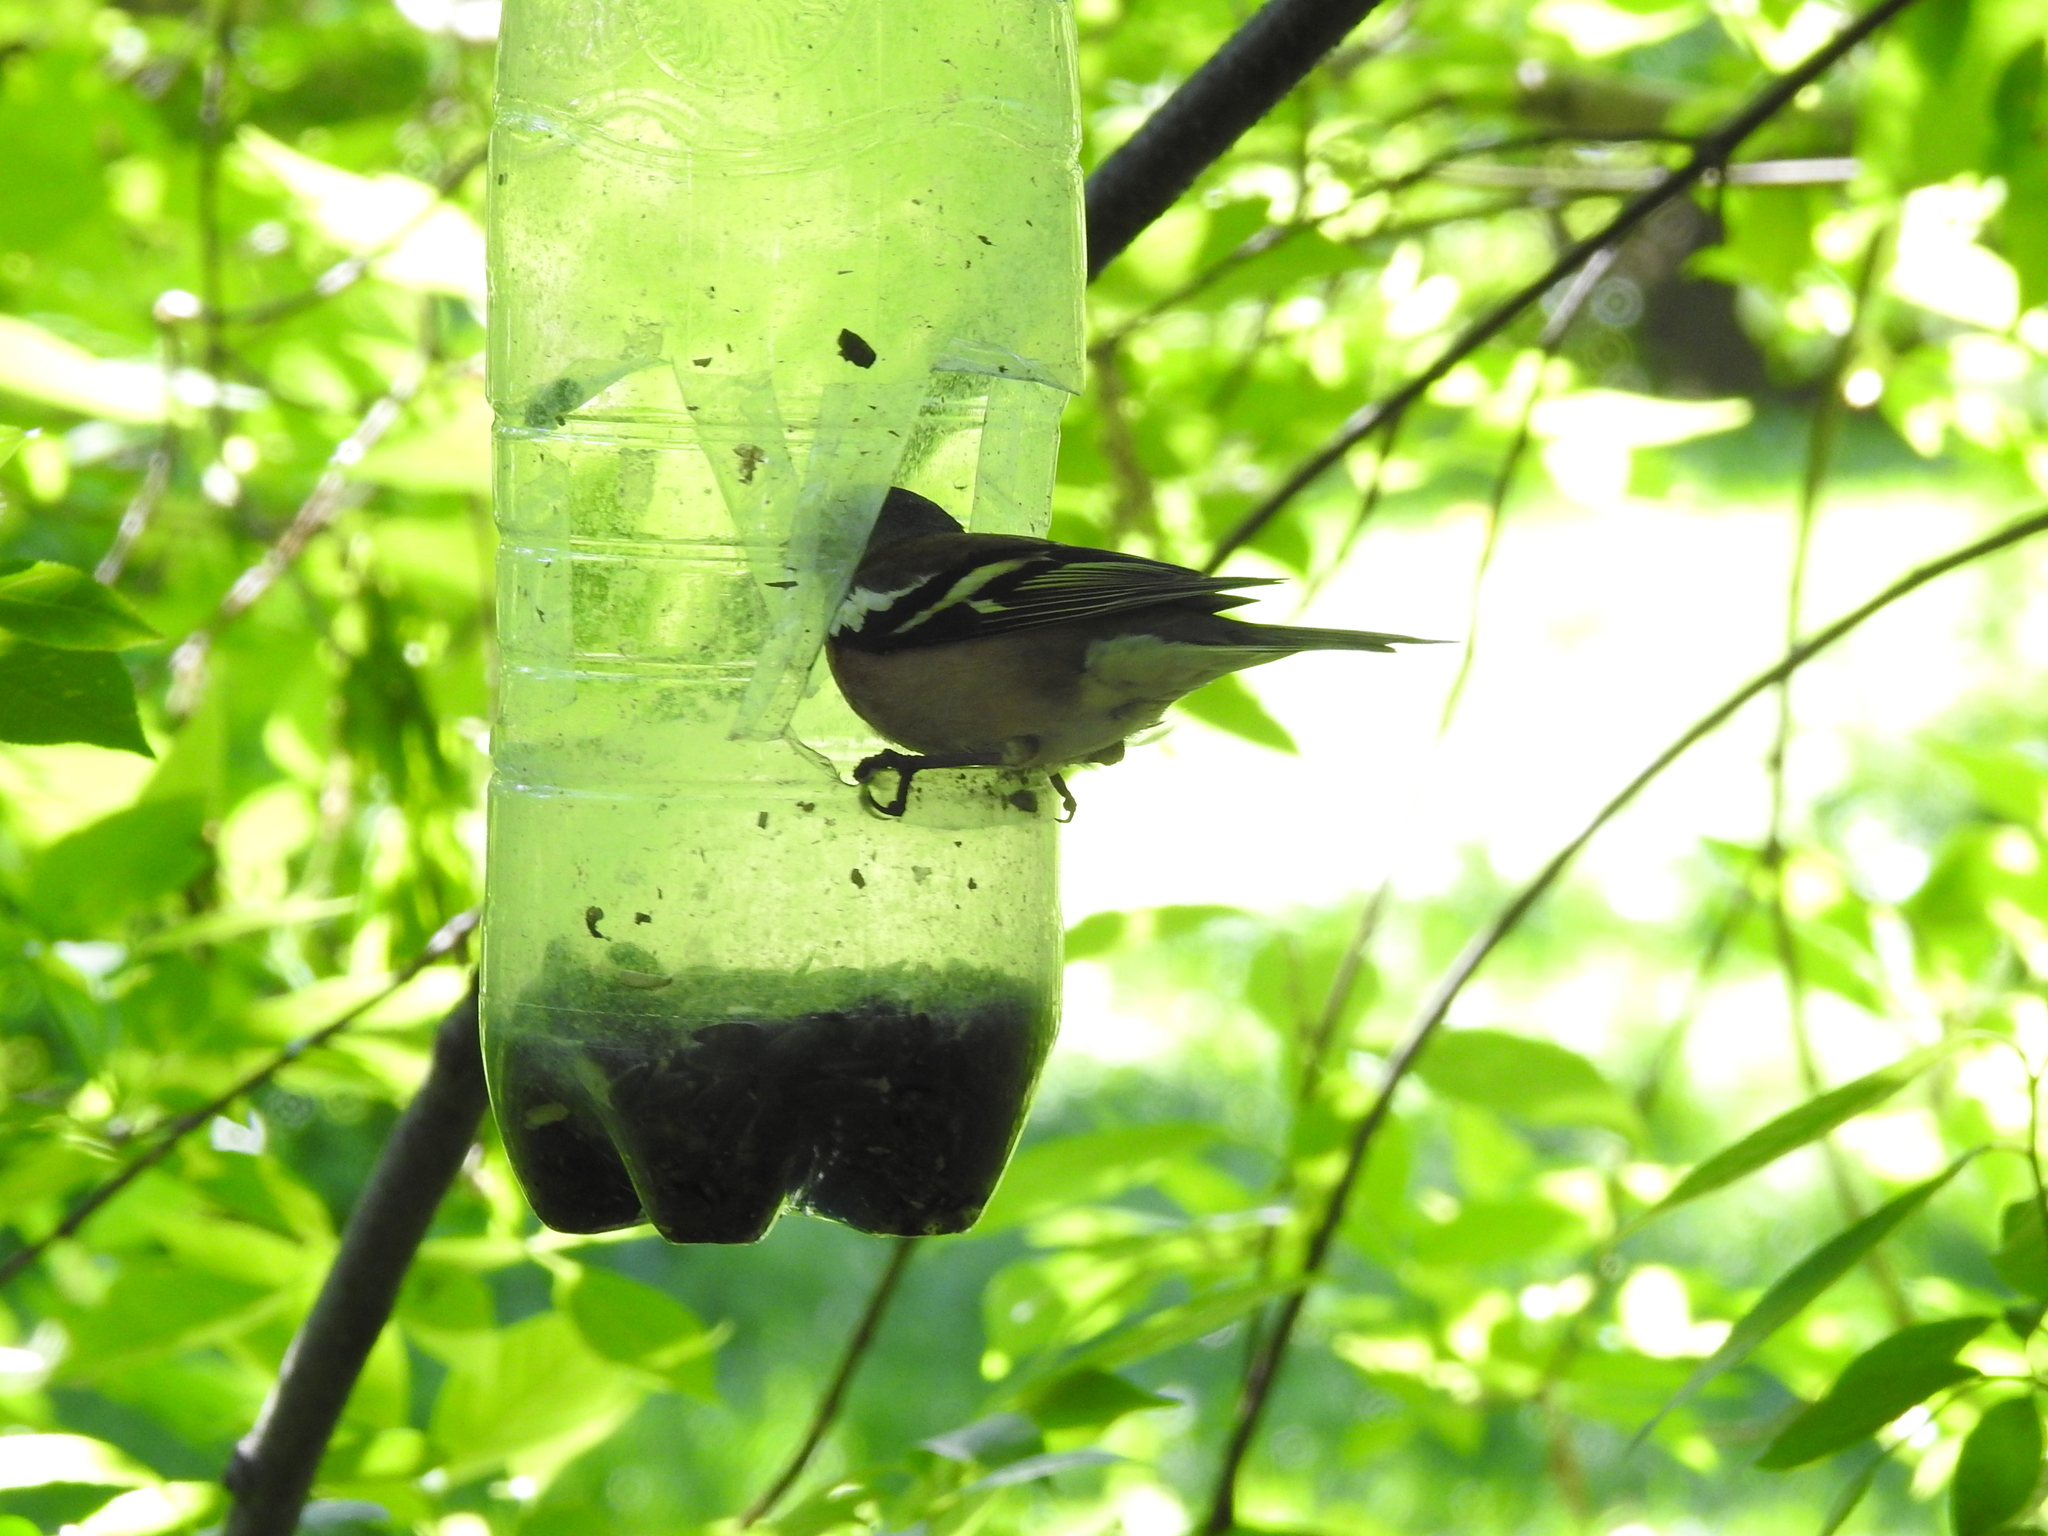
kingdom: Animalia
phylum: Chordata
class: Aves
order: Passeriformes
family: Fringillidae
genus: Fringilla
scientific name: Fringilla coelebs
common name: Common chaffinch
